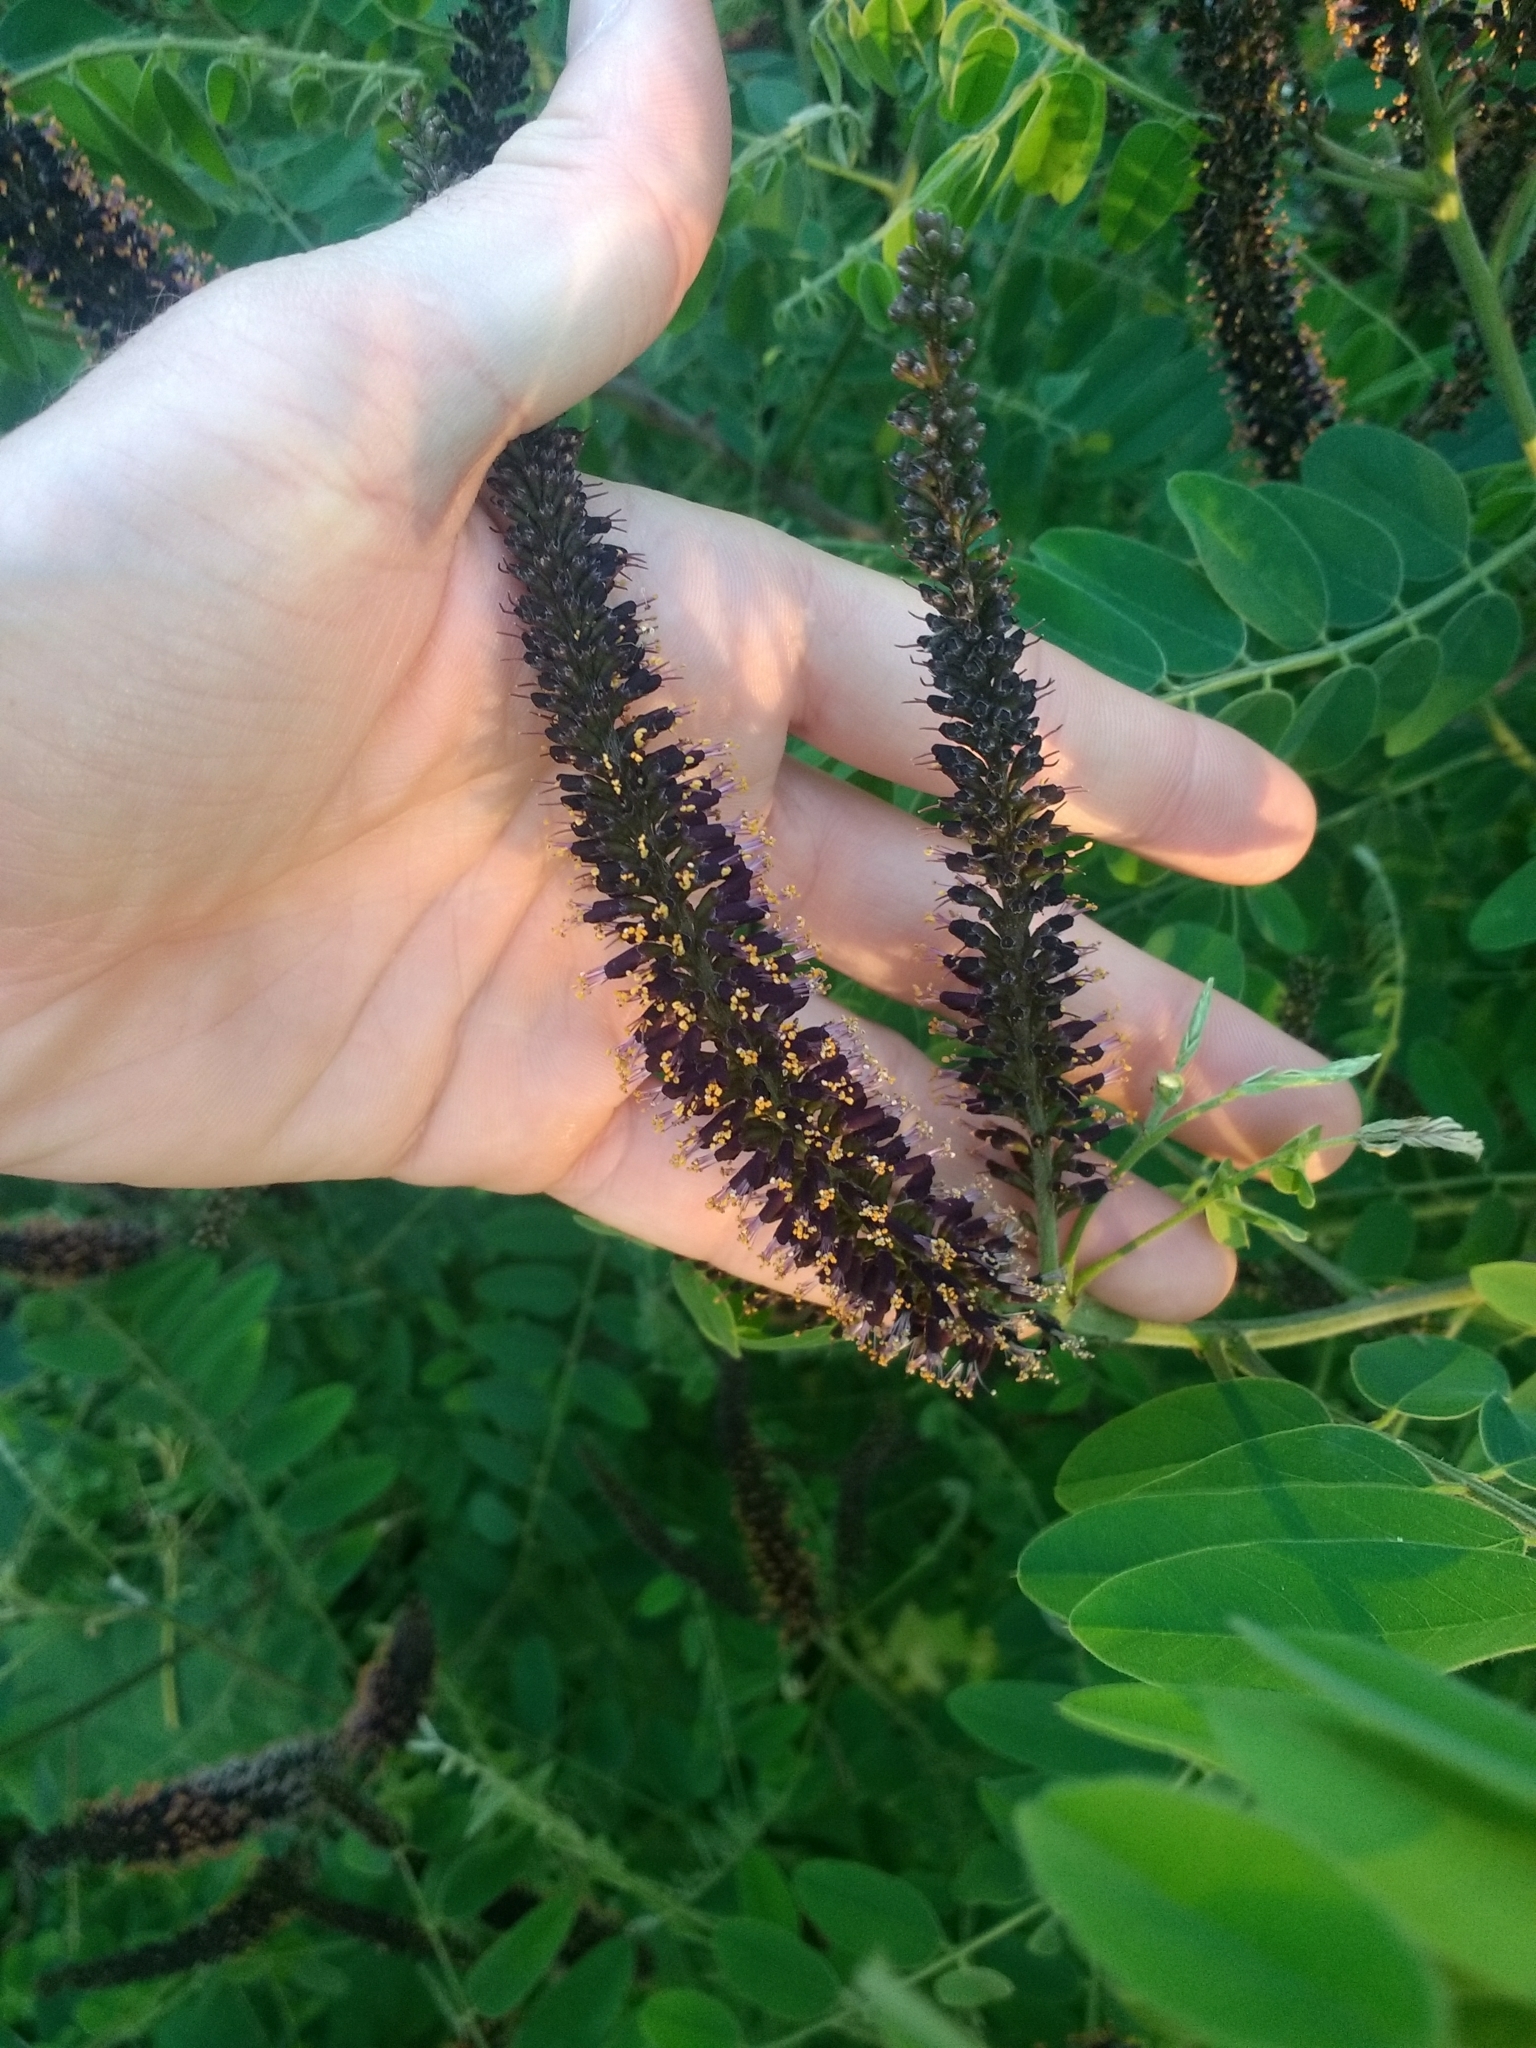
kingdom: Plantae
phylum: Tracheophyta
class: Magnoliopsida
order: Fabales
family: Fabaceae
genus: Amorpha
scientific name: Amorpha fruticosa
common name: False indigo
